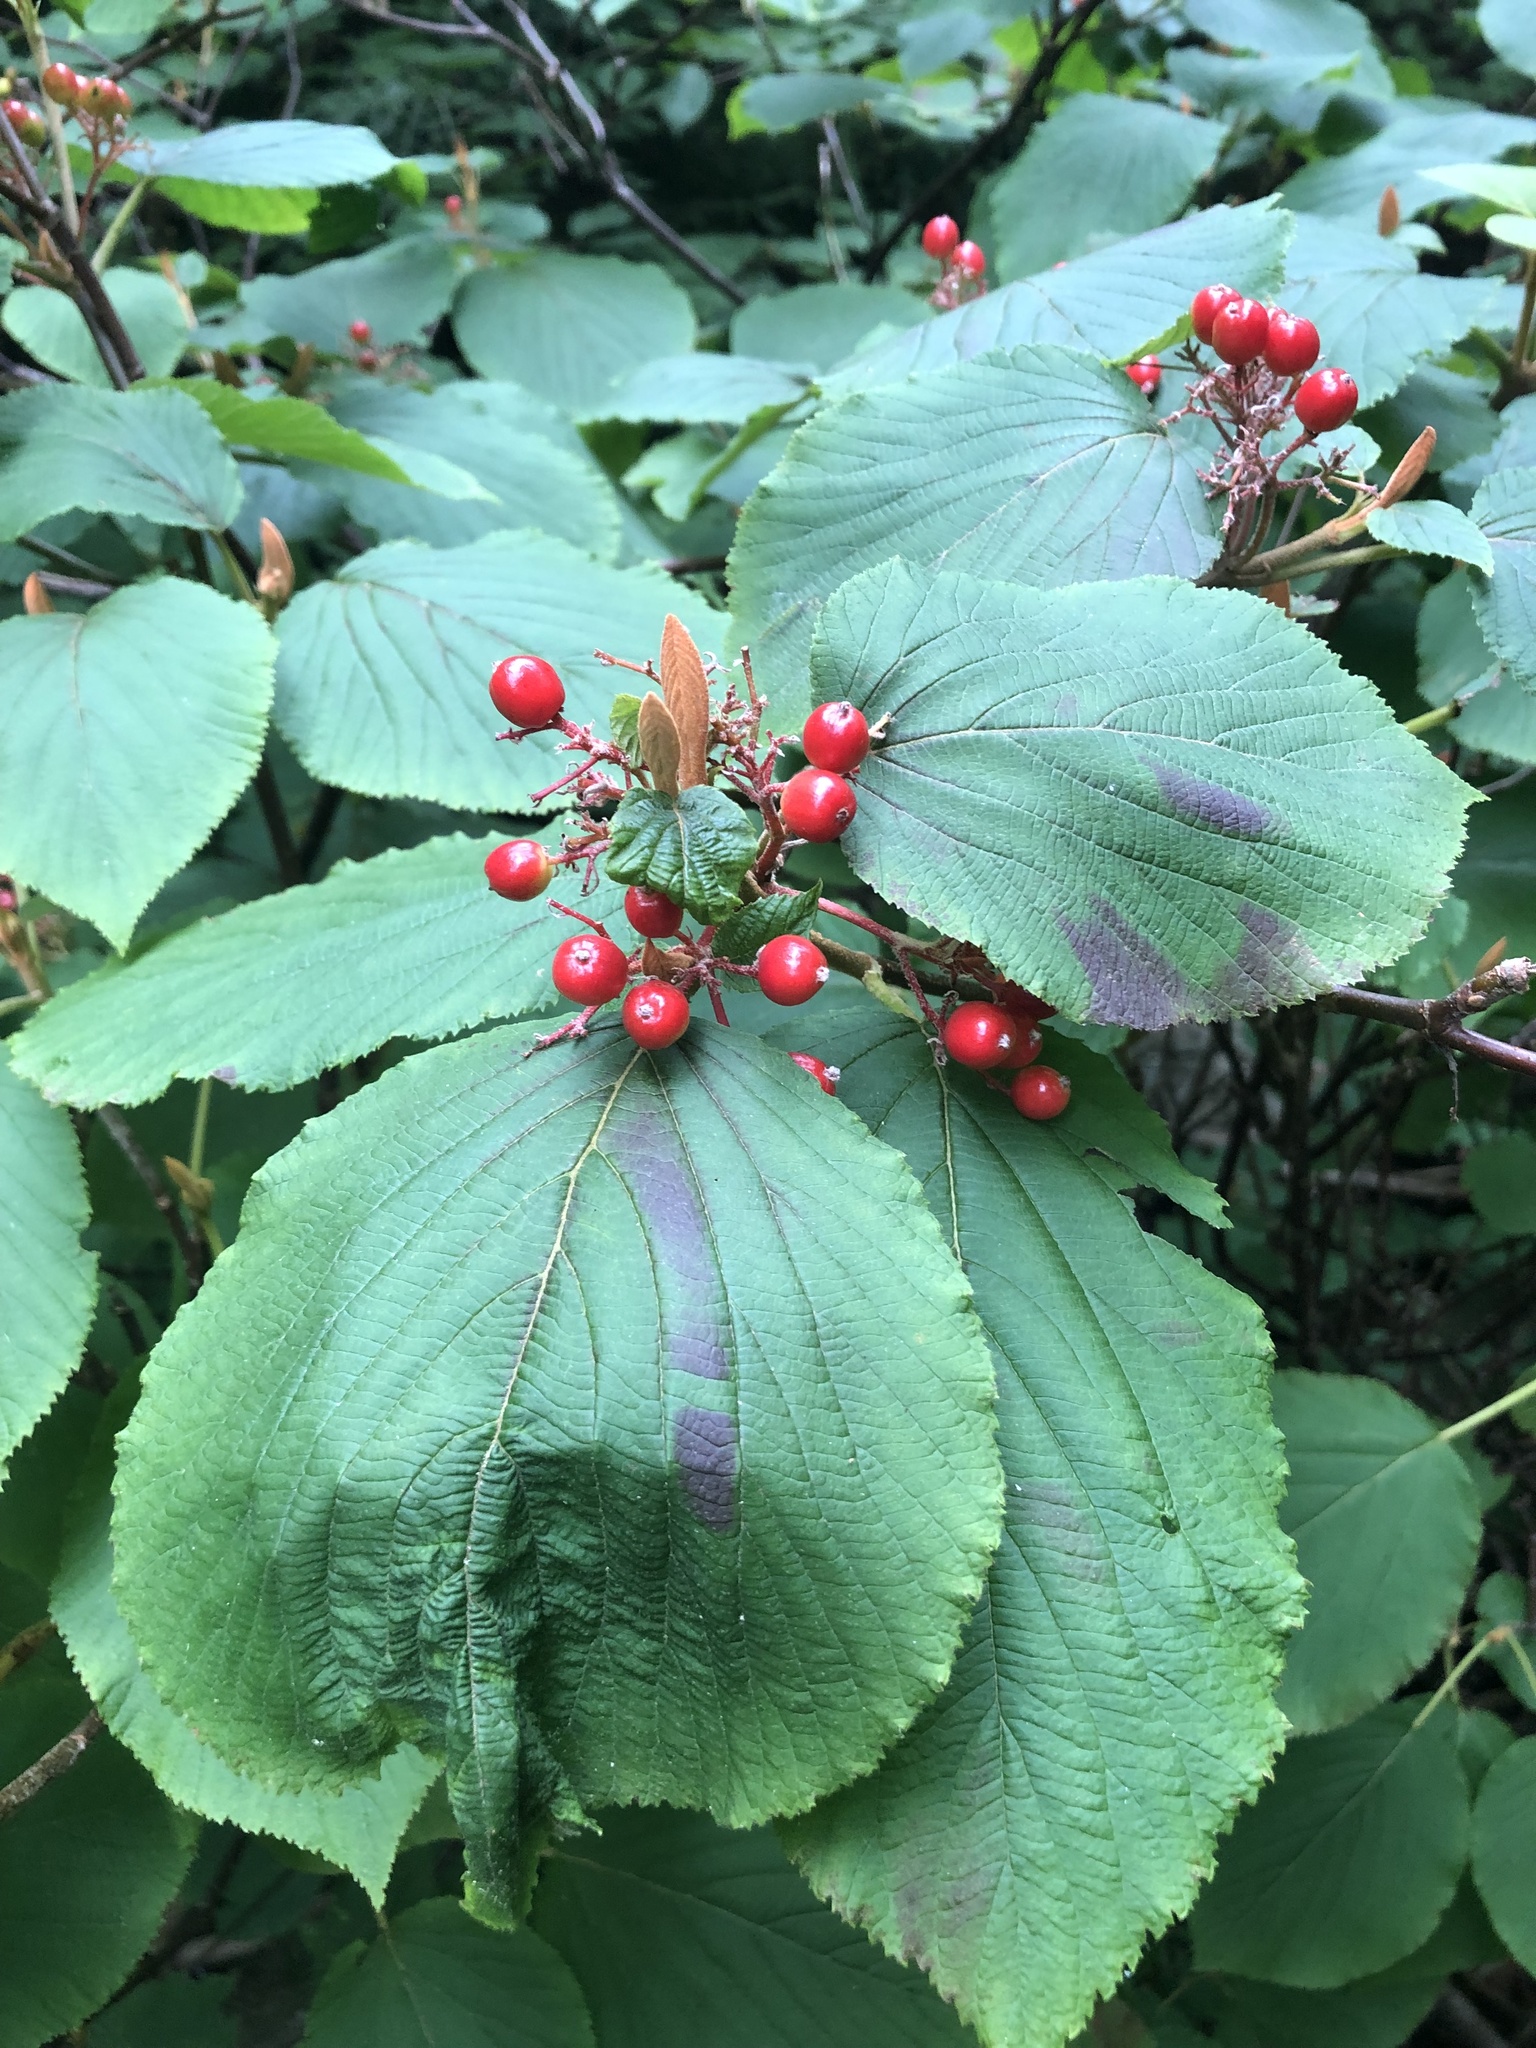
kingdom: Plantae
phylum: Tracheophyta
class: Magnoliopsida
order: Dipsacales
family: Viburnaceae
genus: Viburnum
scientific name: Viburnum lantanoides
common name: Hobblebush
